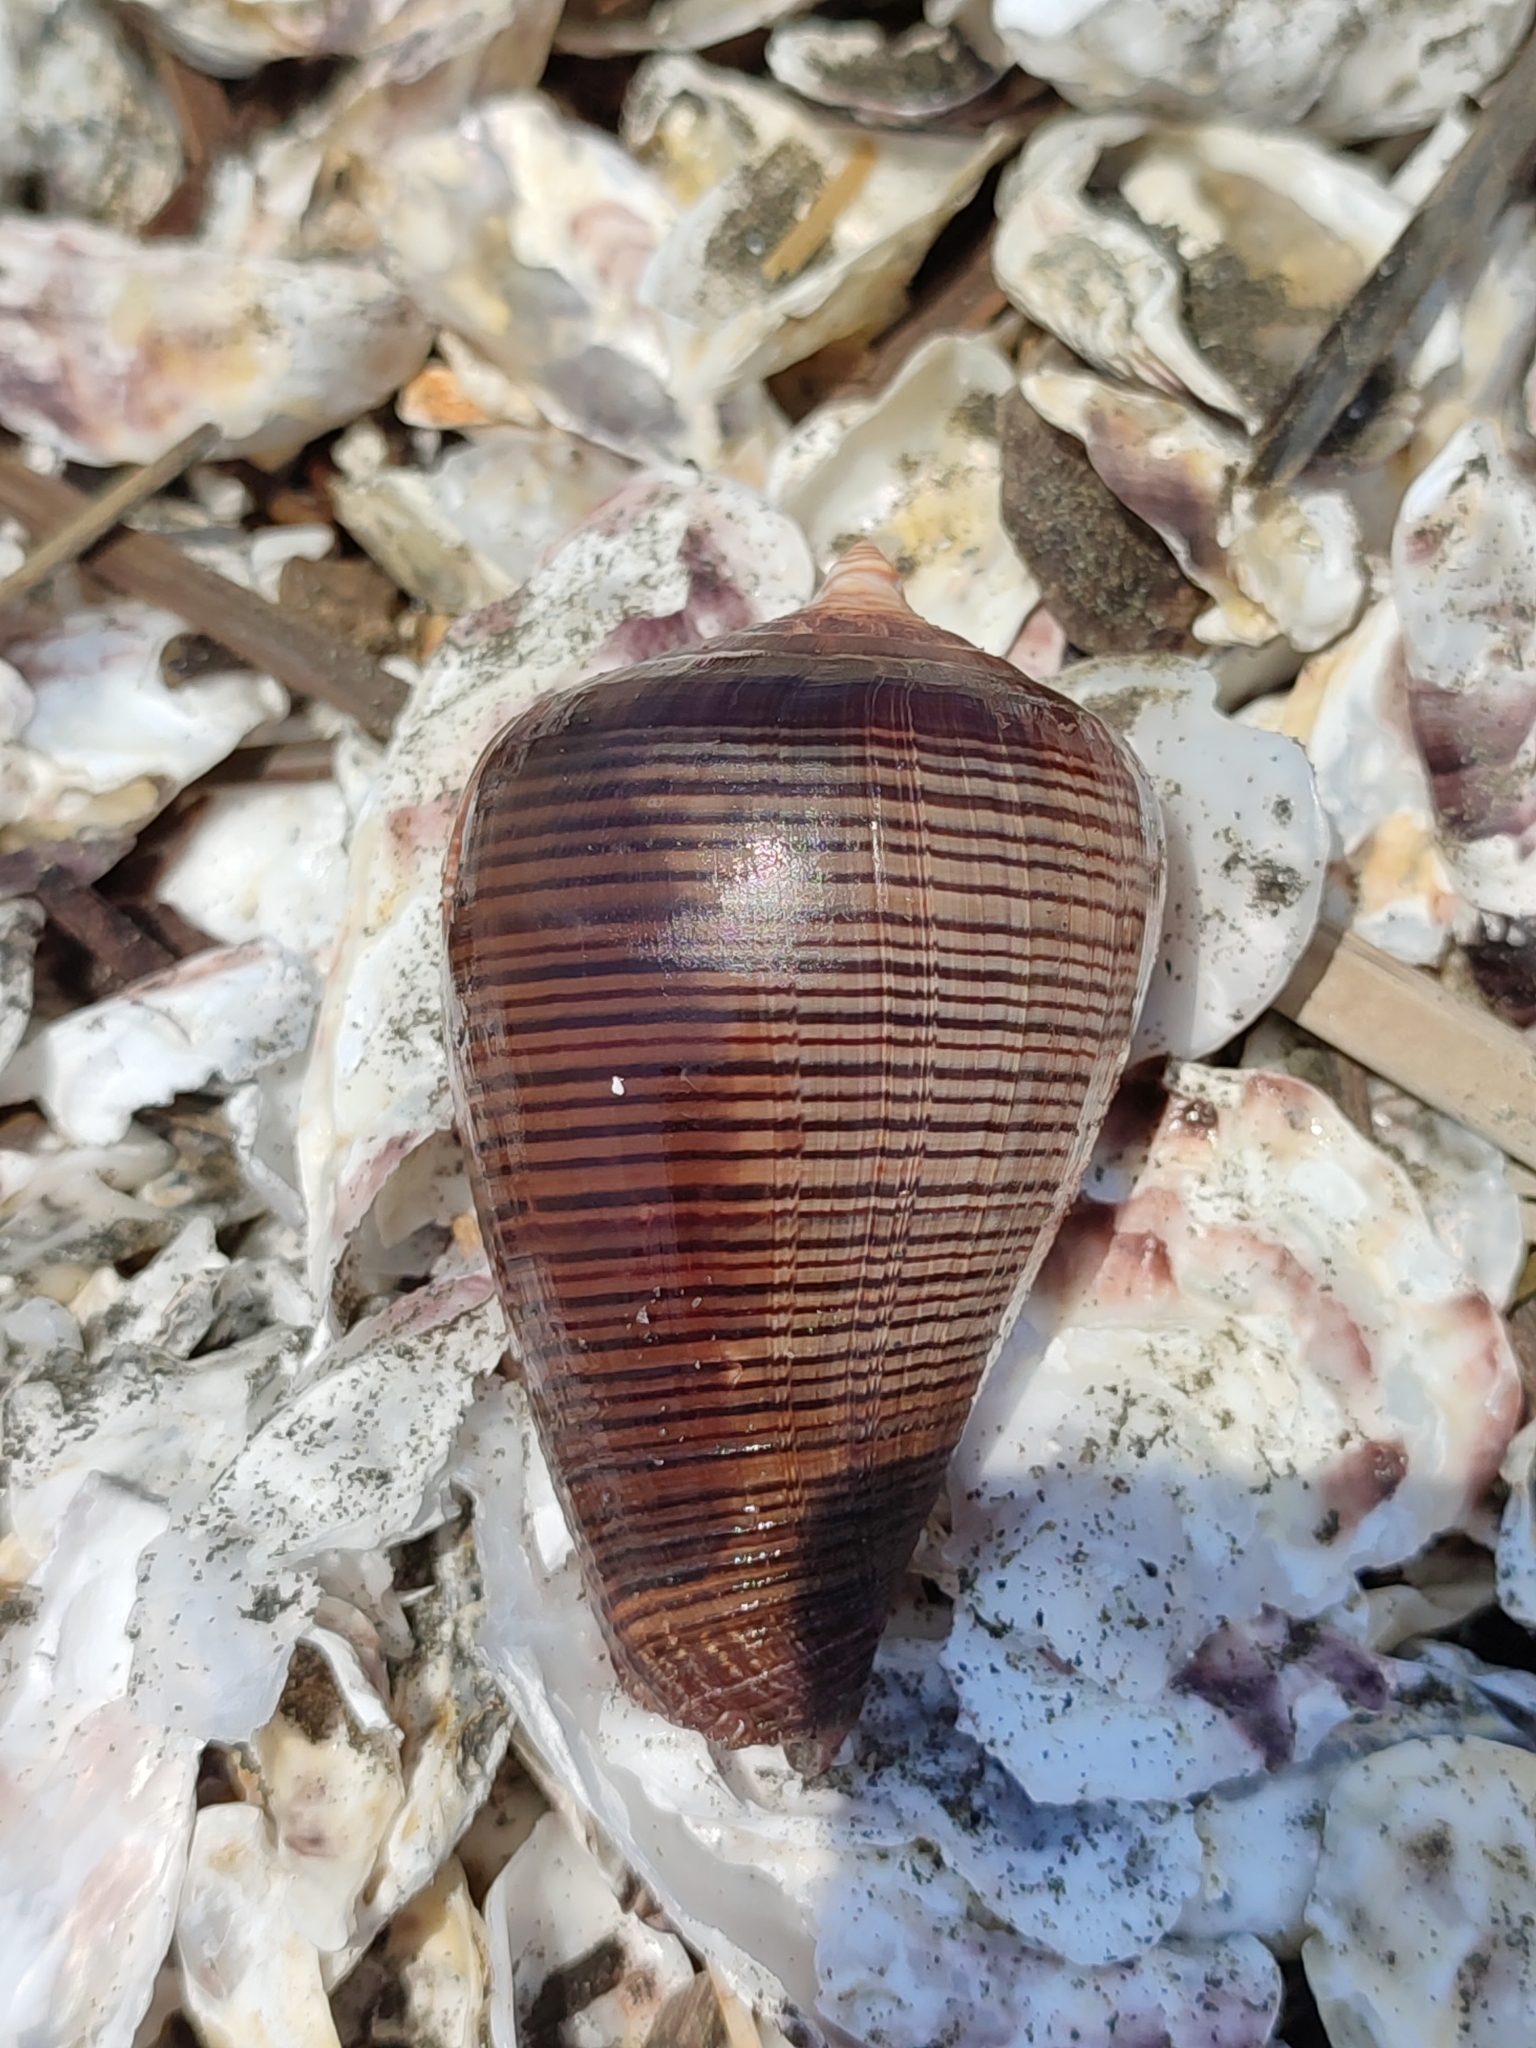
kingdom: Animalia
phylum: Mollusca
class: Gastropoda
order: Neogastropoda
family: Conidae
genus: Conus
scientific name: Conus figulinus
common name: Fig cone
